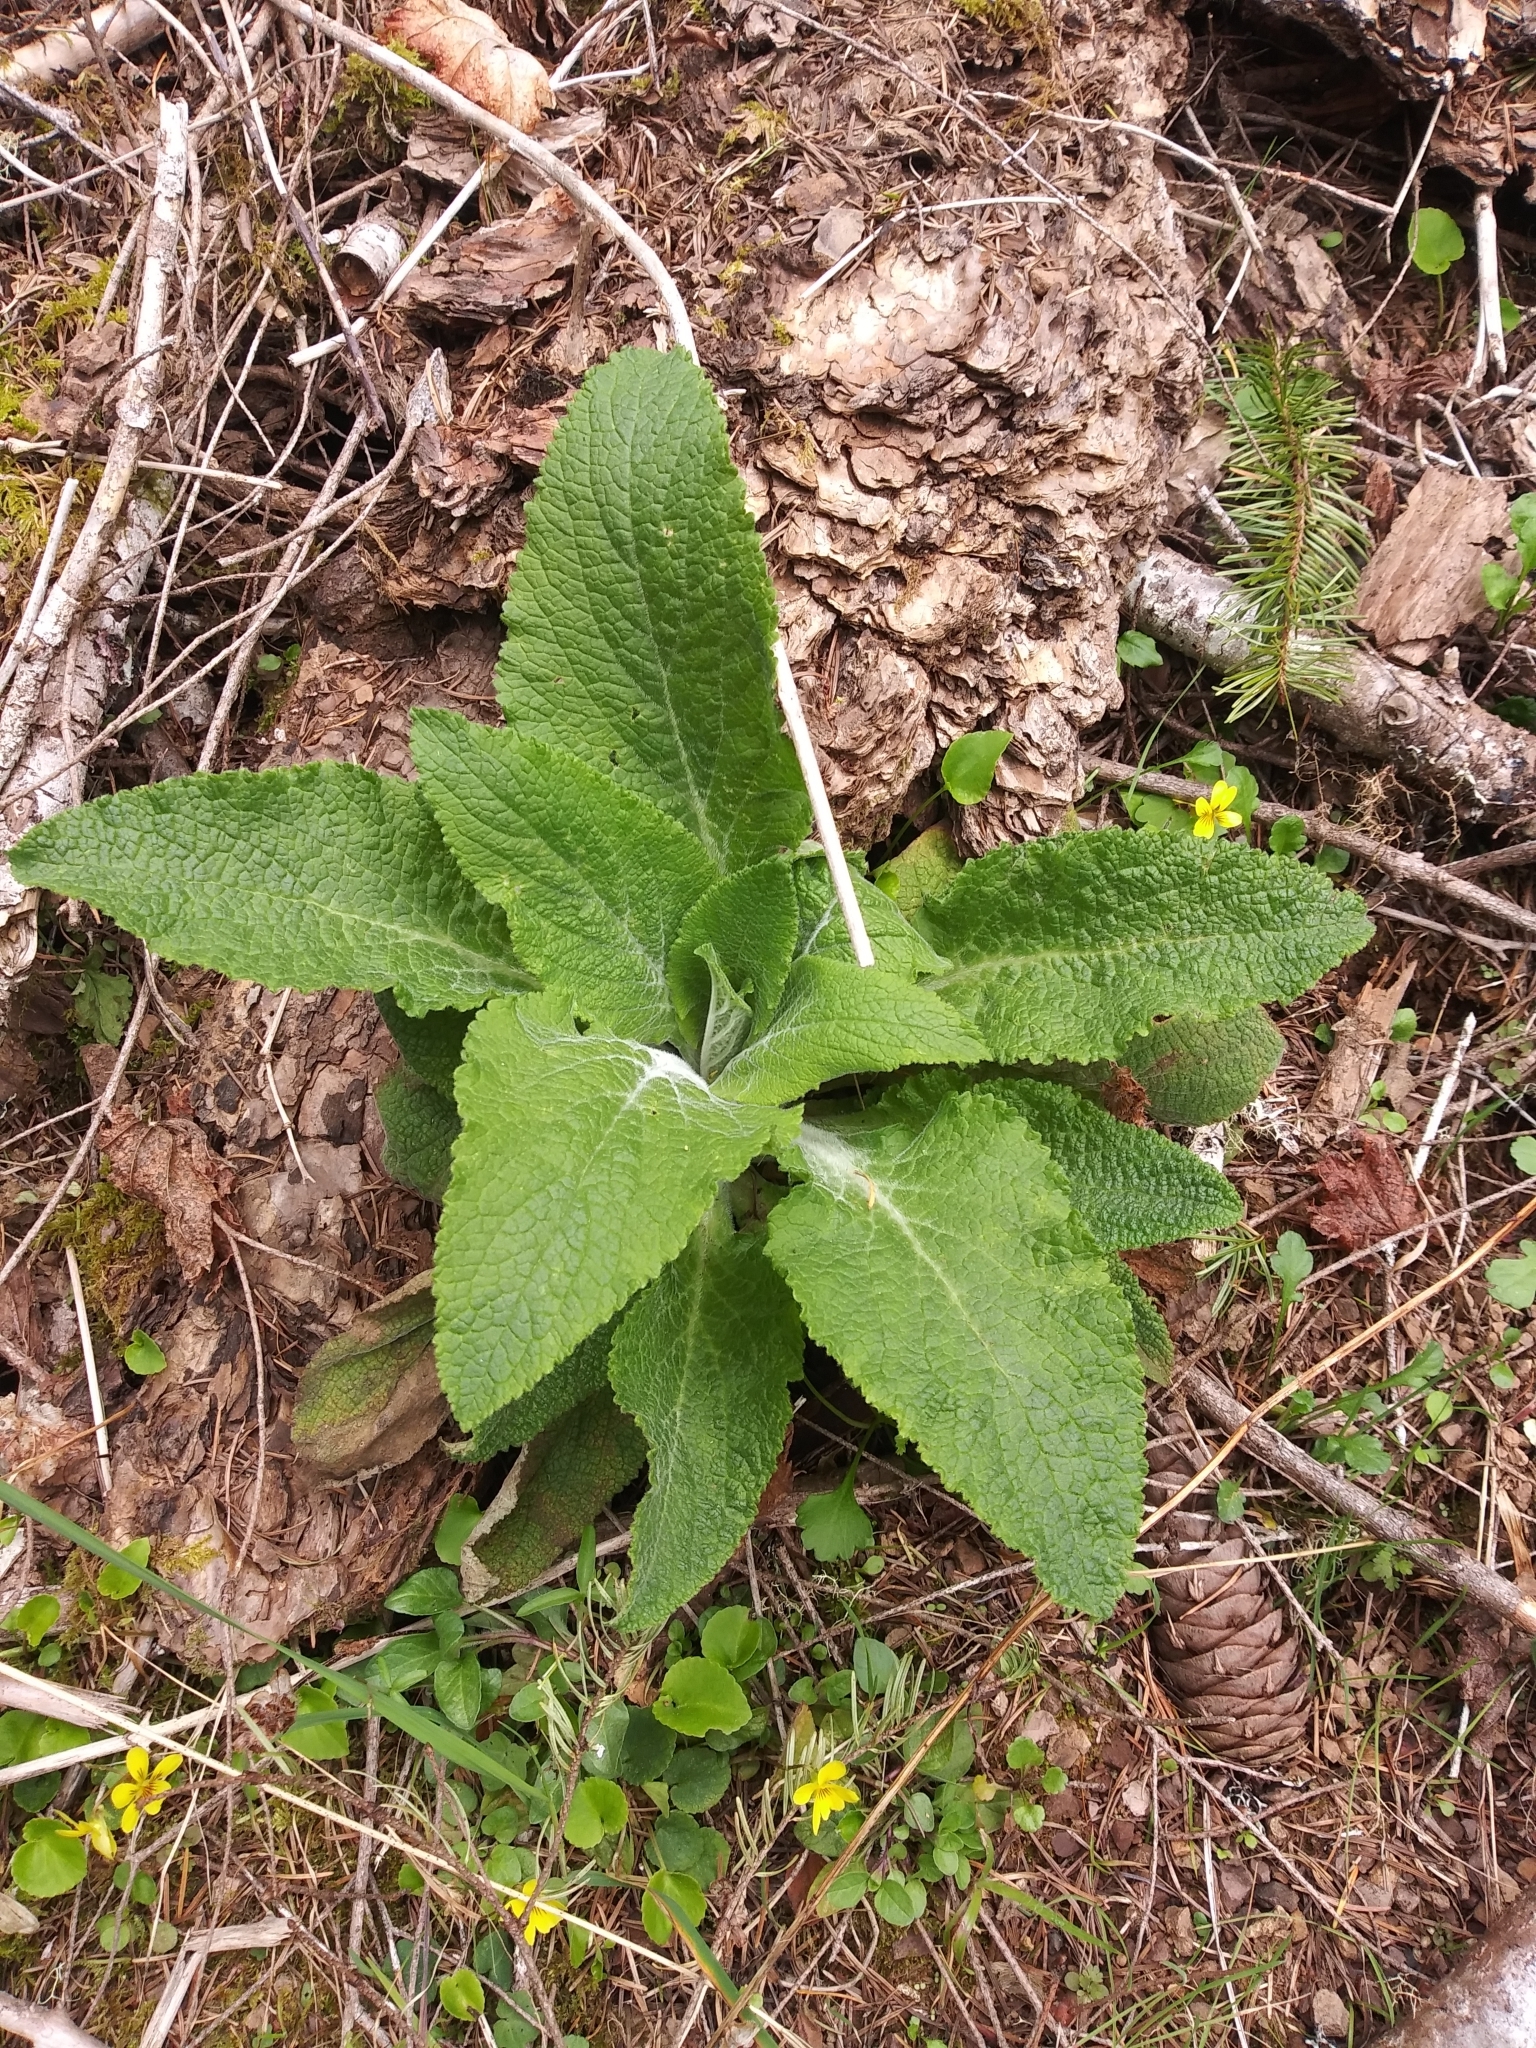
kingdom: Plantae
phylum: Tracheophyta
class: Magnoliopsida
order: Lamiales
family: Plantaginaceae
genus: Digitalis
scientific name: Digitalis purpurea
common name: Foxglove
